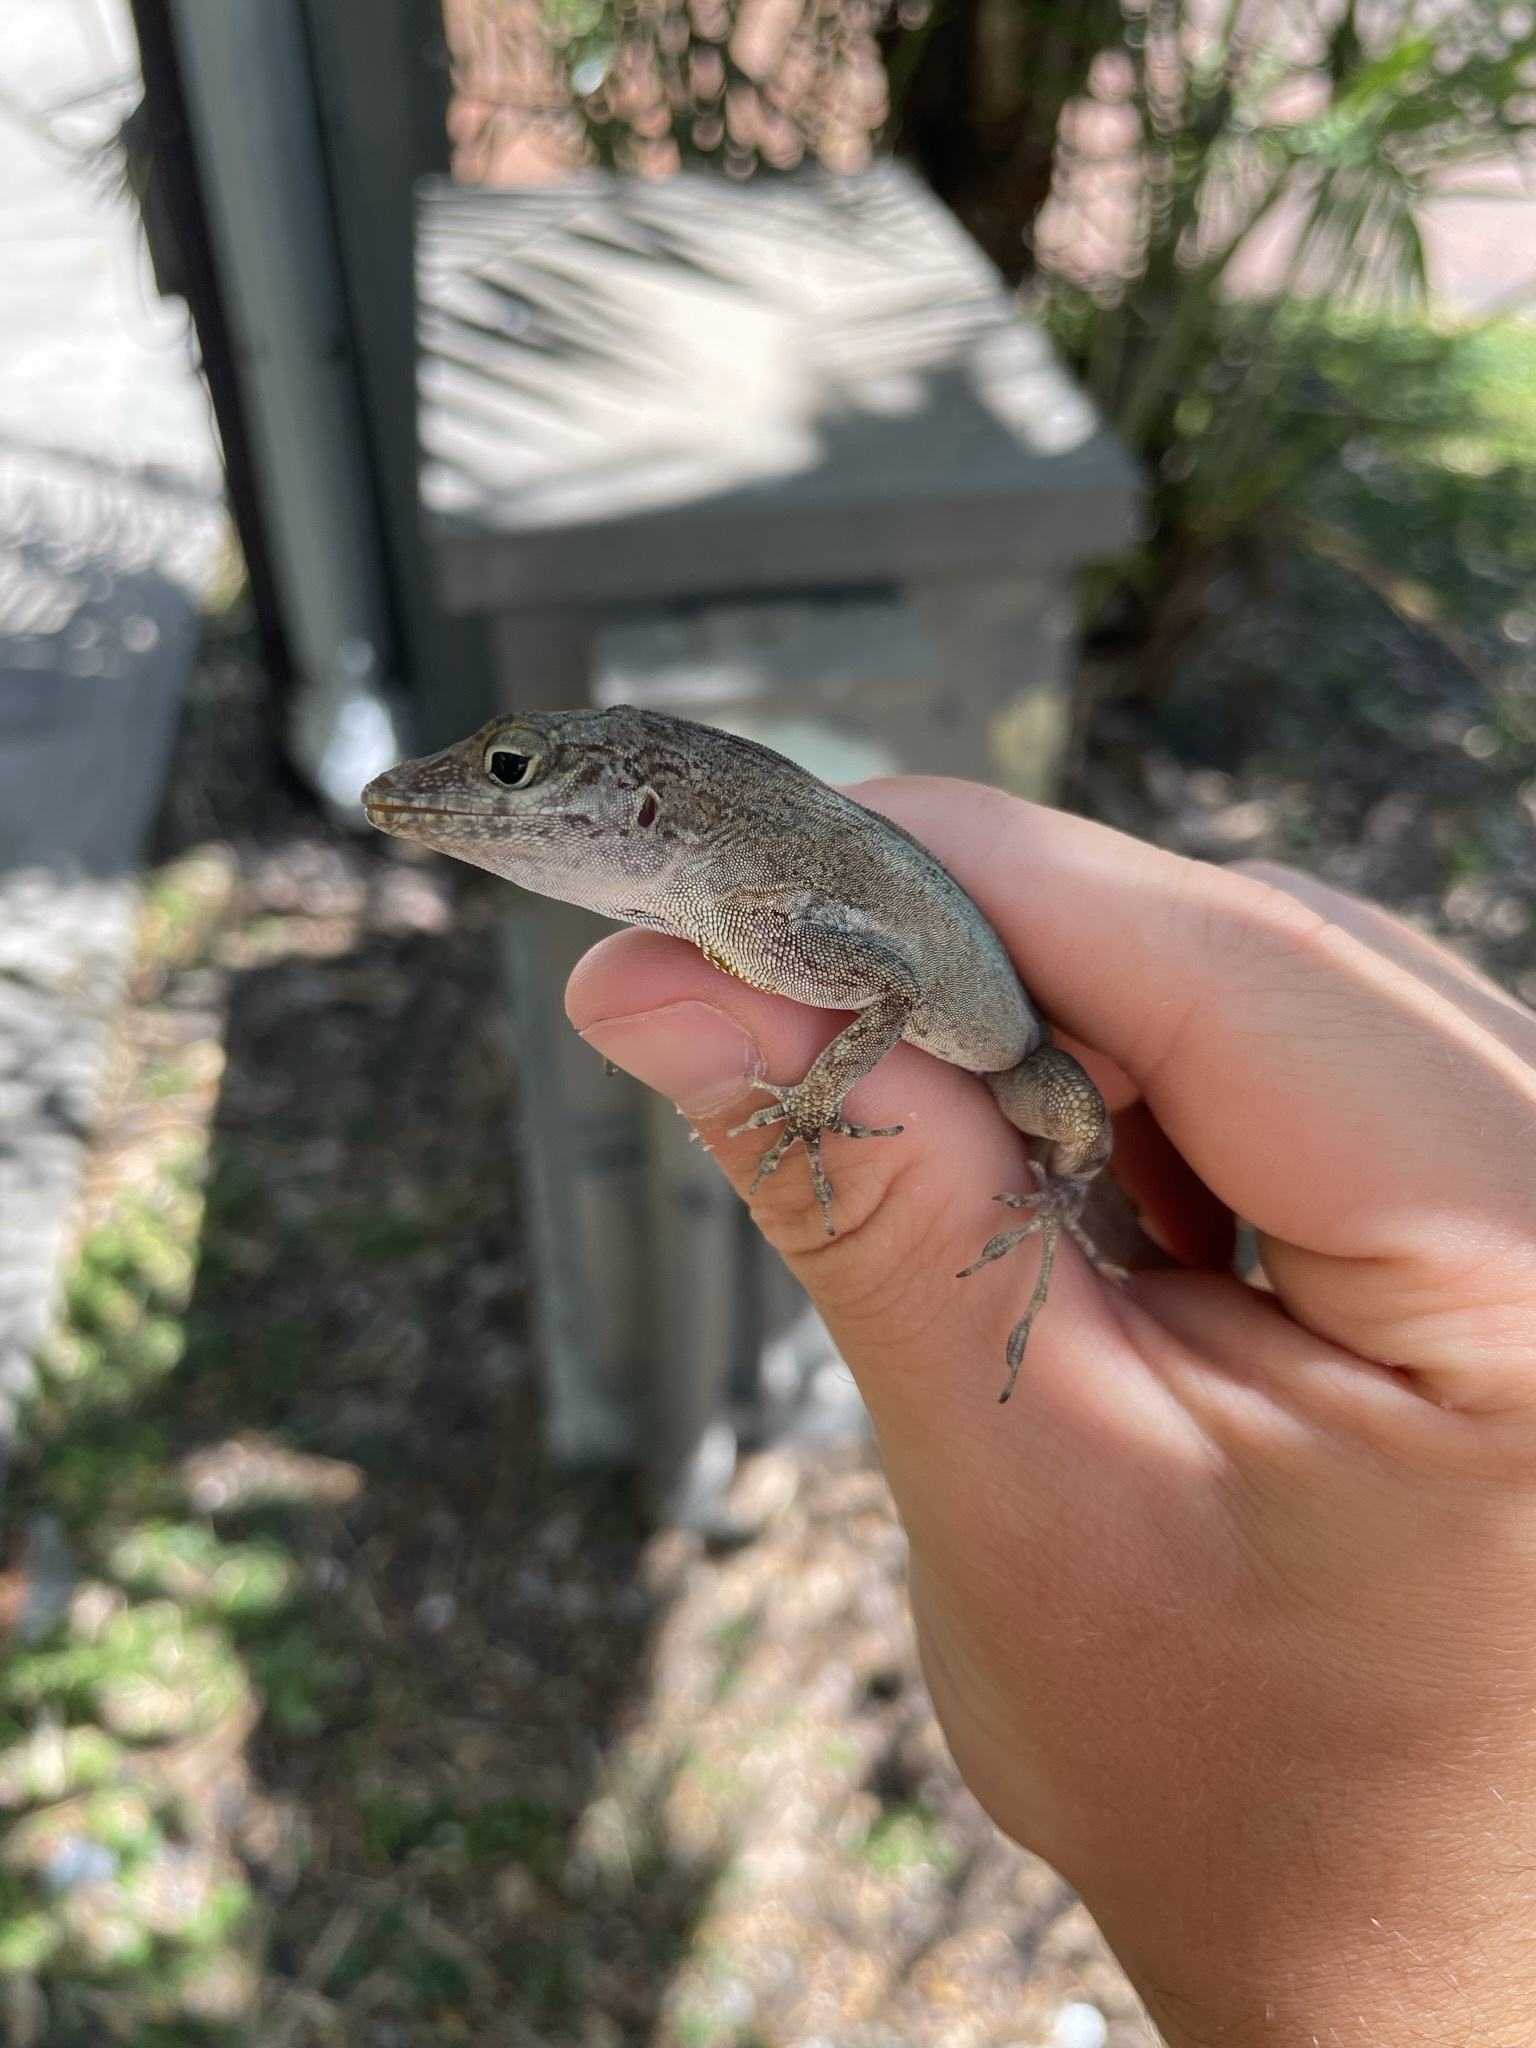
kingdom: Animalia
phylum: Chordata
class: Squamata
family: Dactyloidae
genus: Anolis
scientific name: Anolis cristatellus
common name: Crested anole
